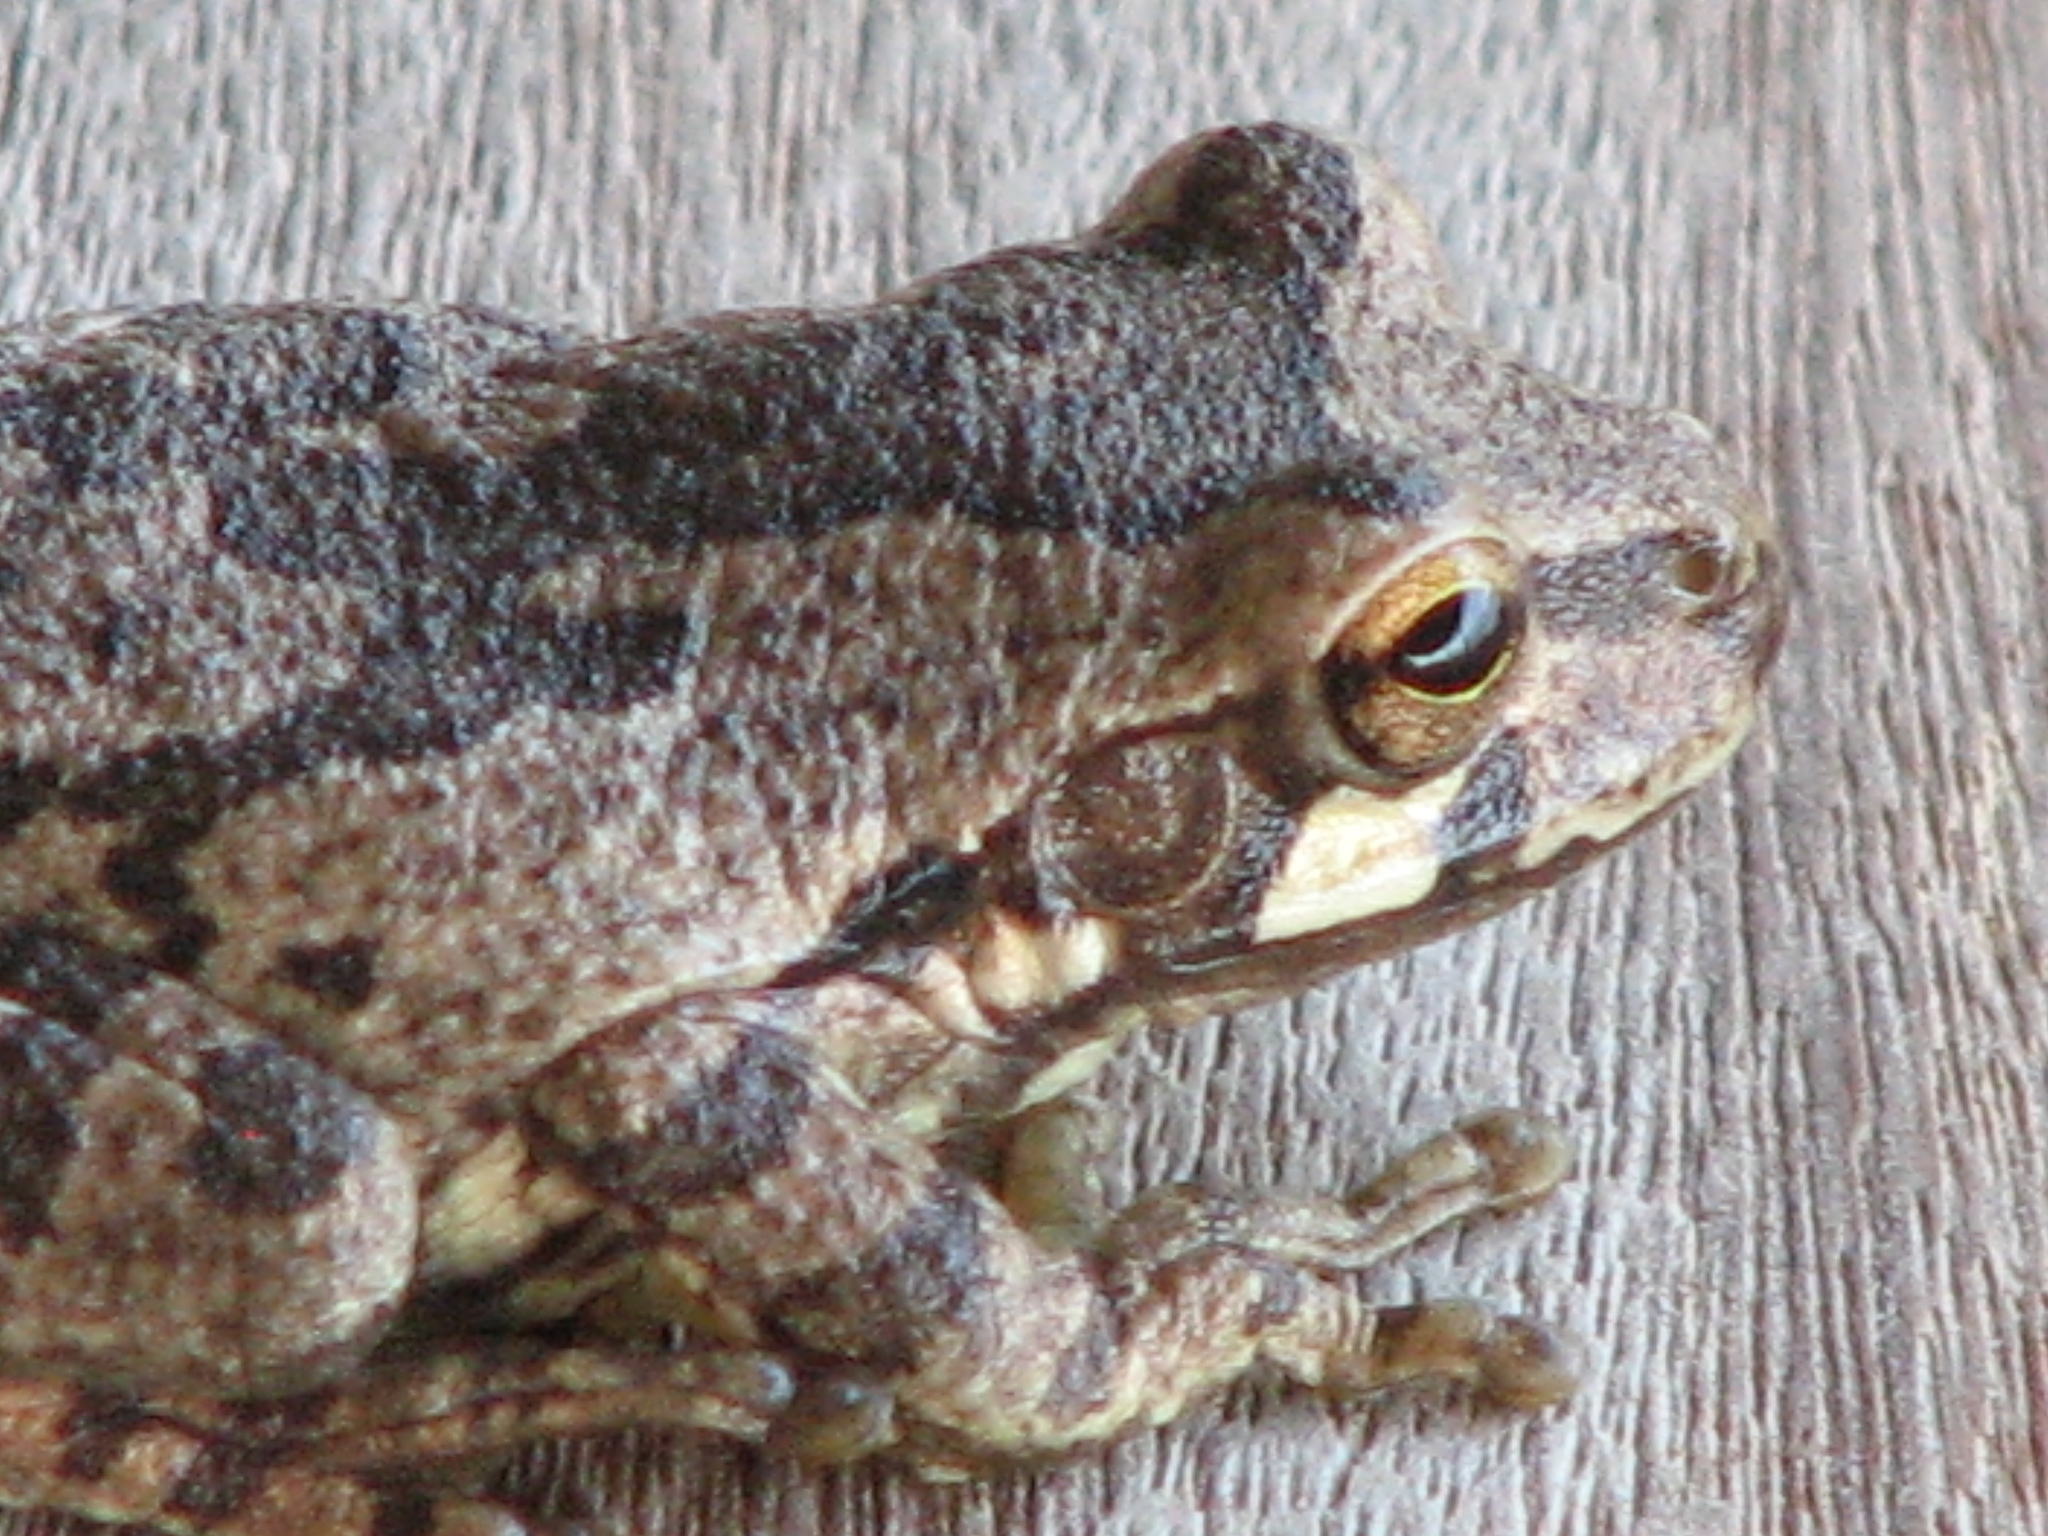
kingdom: Animalia
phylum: Chordata
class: Amphibia
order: Anura
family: Hylidae
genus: Smilisca
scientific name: Smilisca baudinii
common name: Mexican smilisca
